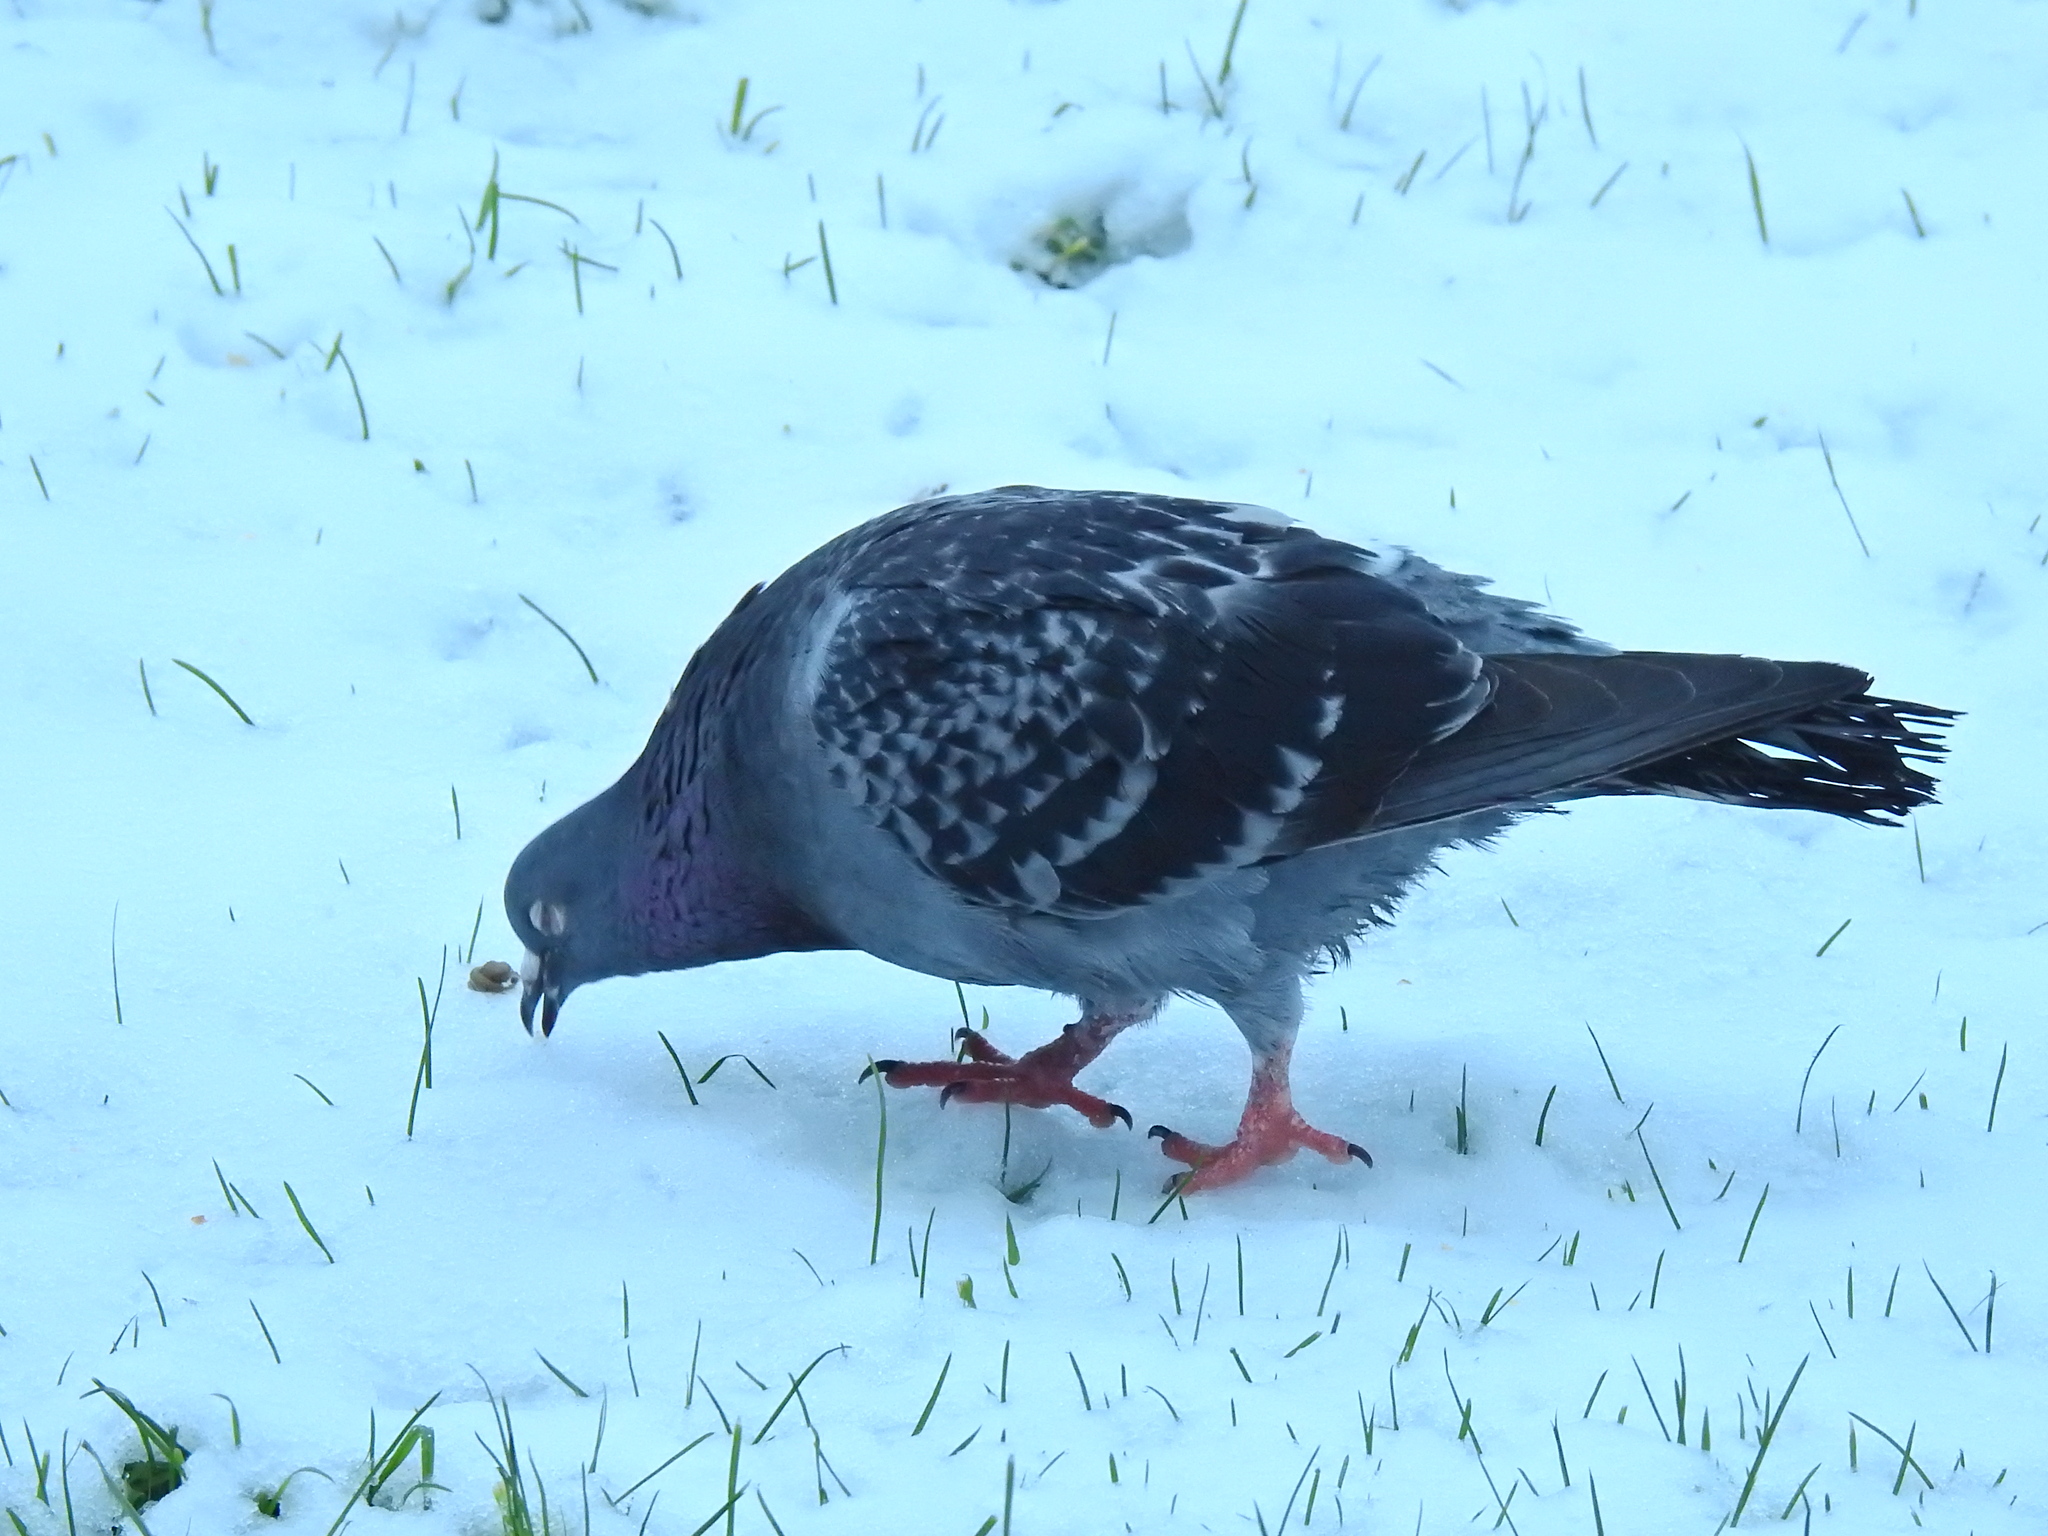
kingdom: Animalia
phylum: Chordata
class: Aves
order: Columbiformes
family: Columbidae
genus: Columba
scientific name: Columba livia
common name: Rock pigeon
